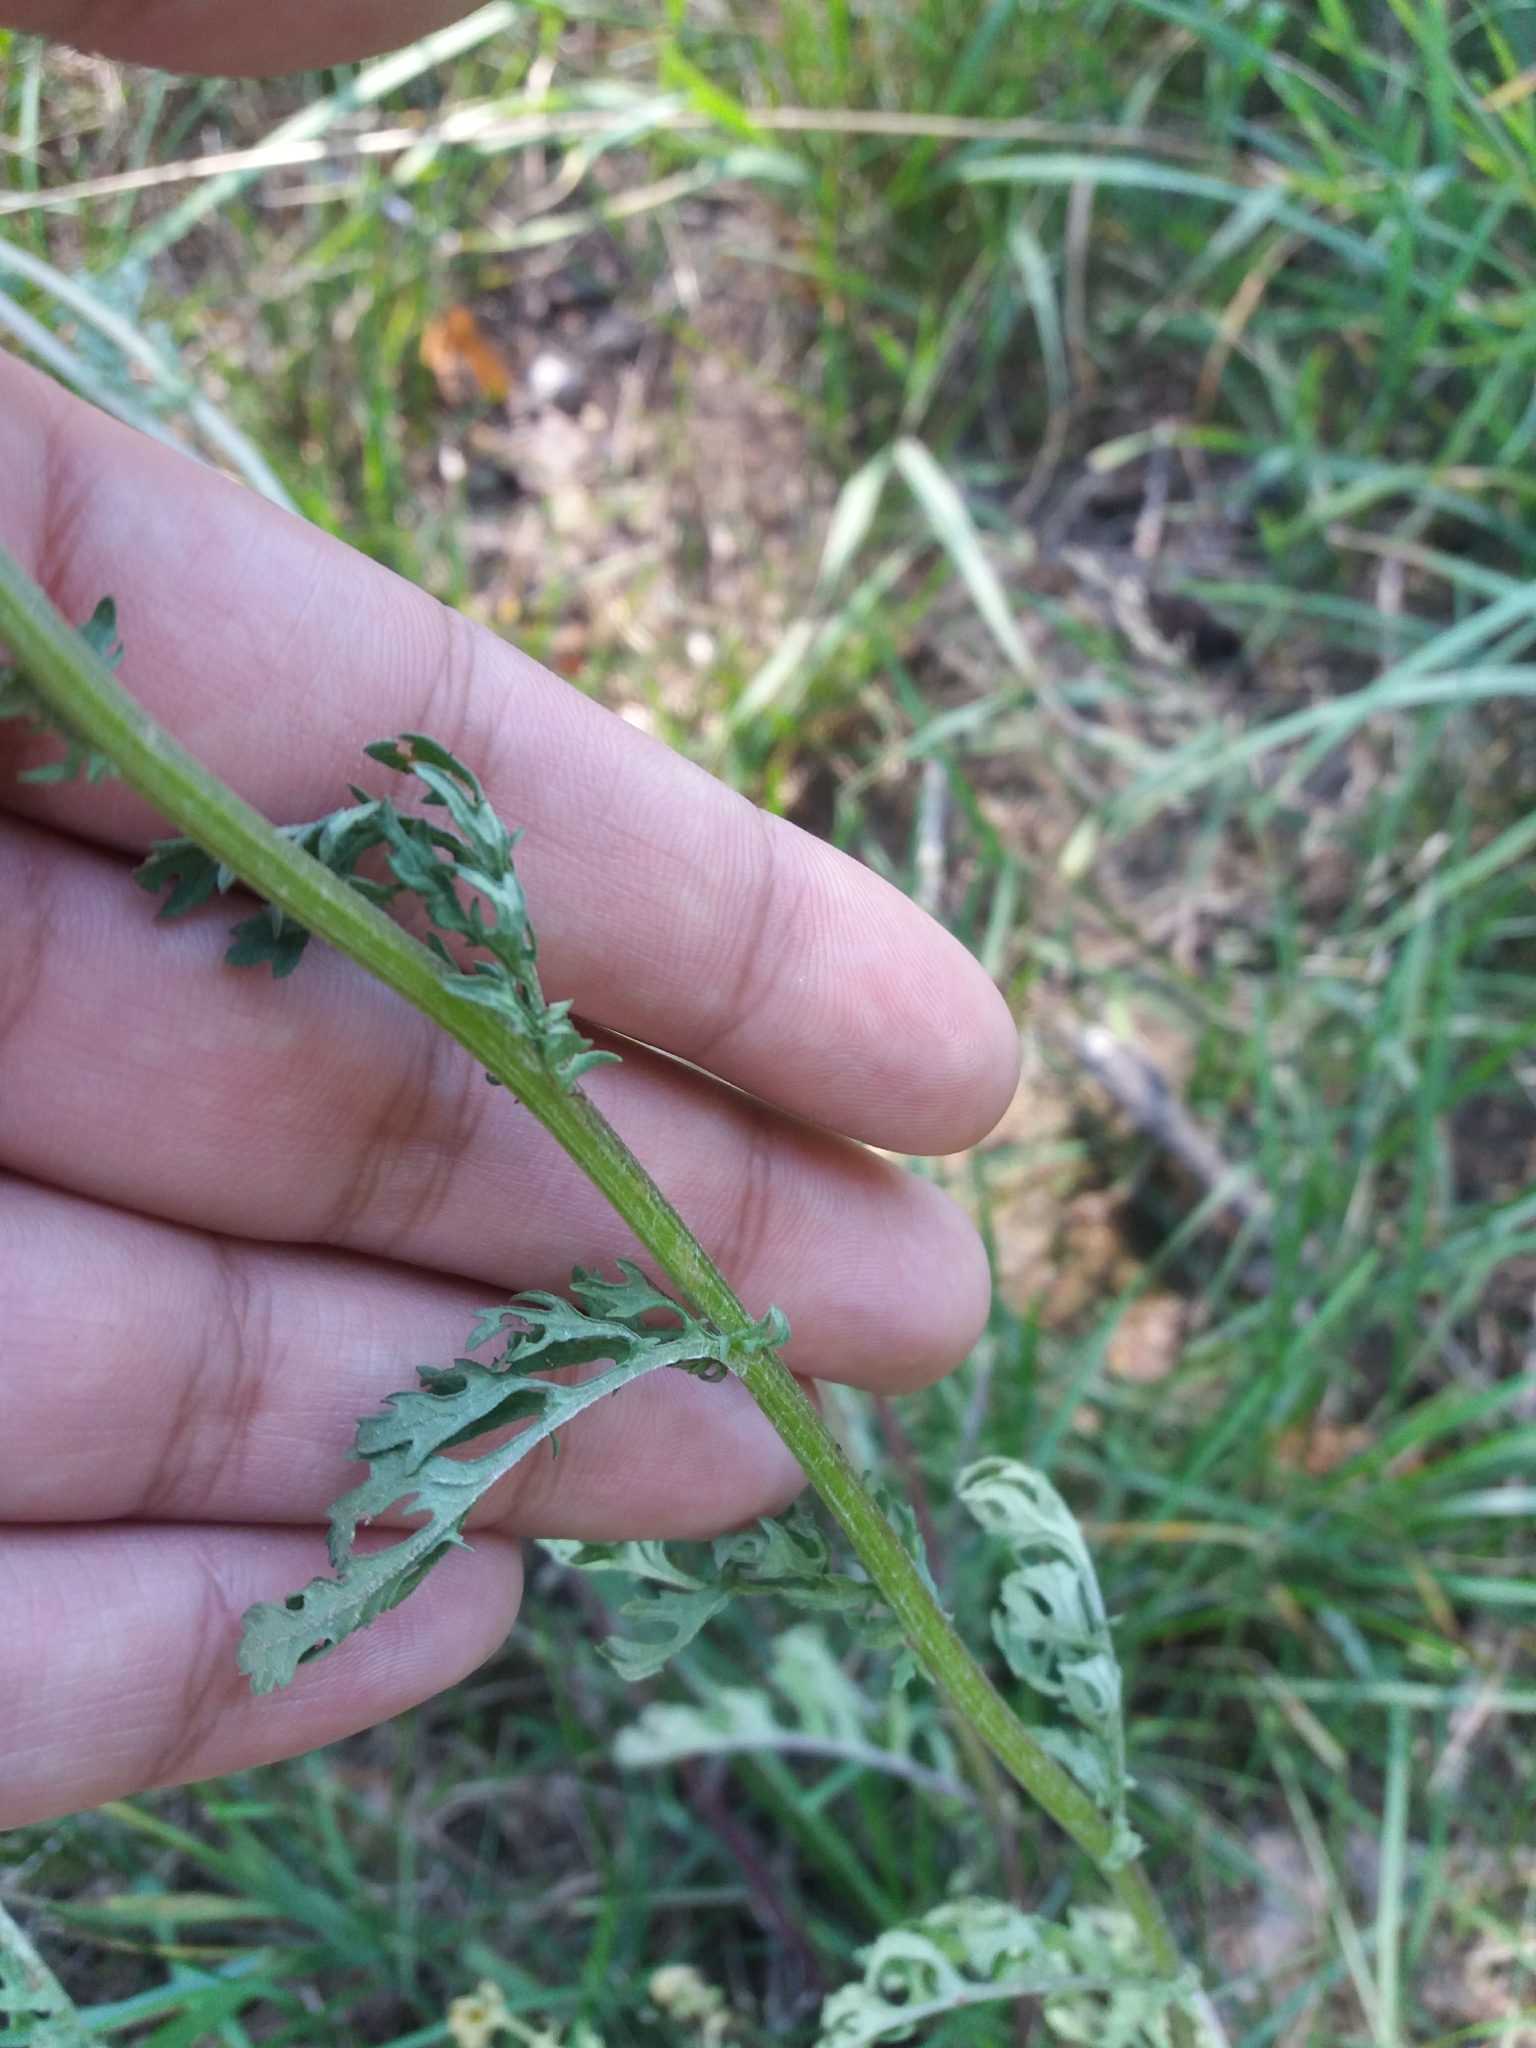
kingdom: Plantae
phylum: Tracheophyta
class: Magnoliopsida
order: Asterales
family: Asteraceae
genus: Jacobaea
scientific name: Jacobaea vulgaris
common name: Stinking willie
